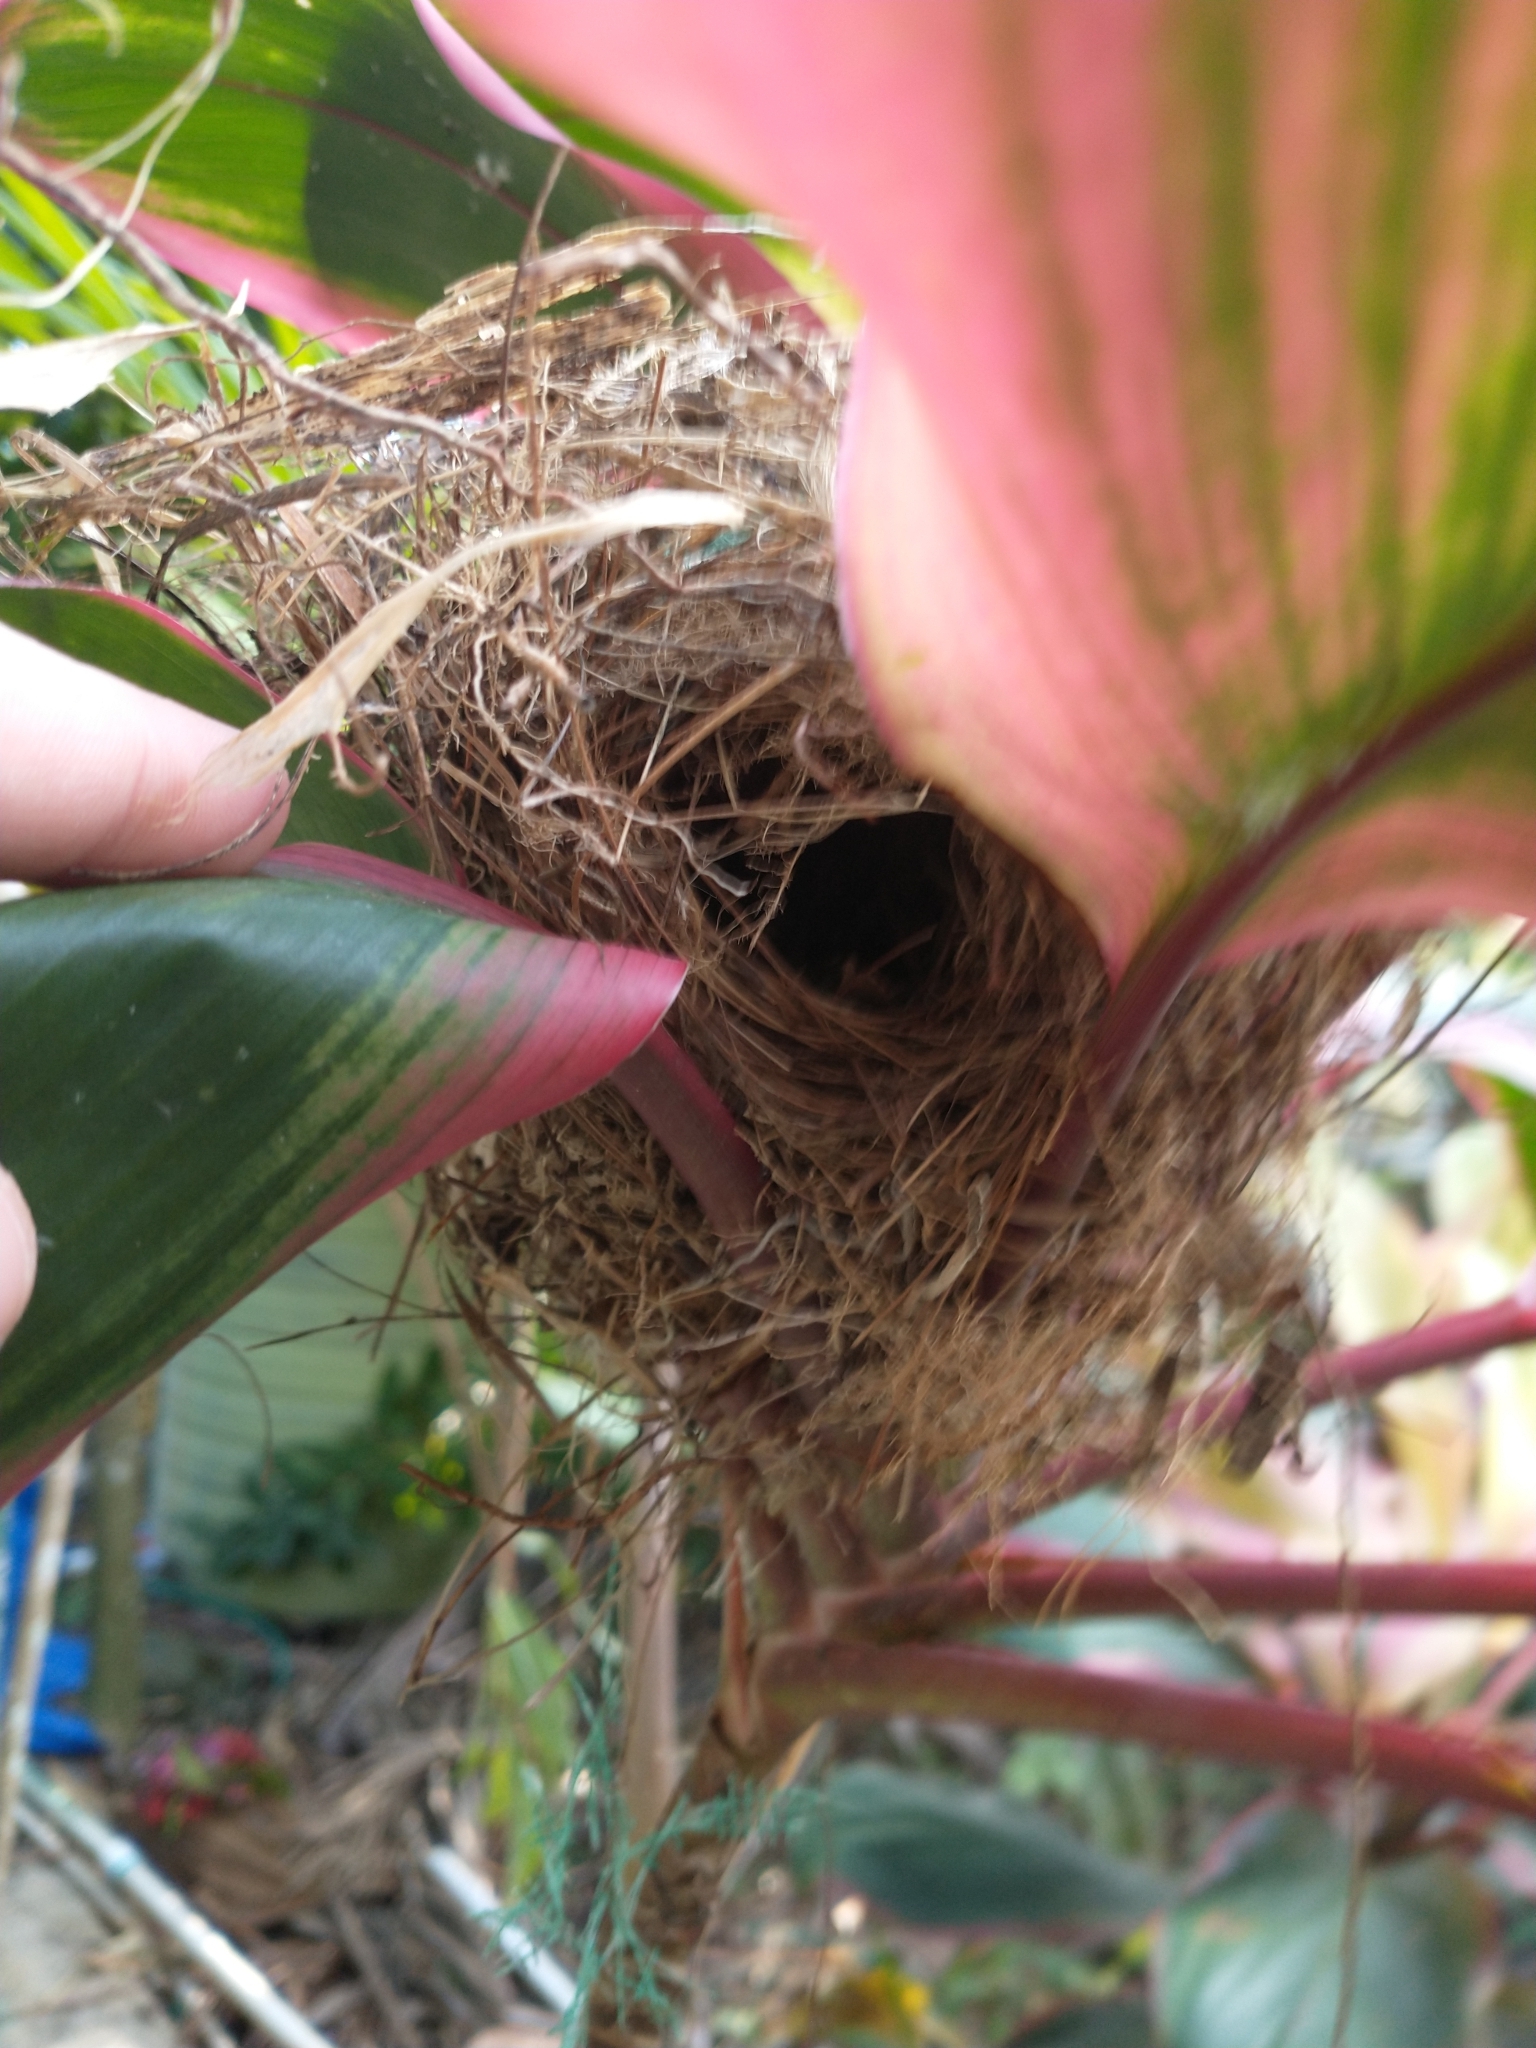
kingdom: Animalia
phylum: Chordata
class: Aves
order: Passeriformes
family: Thraupidae
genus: Coereba
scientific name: Coereba flaveola
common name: Bananaquit
